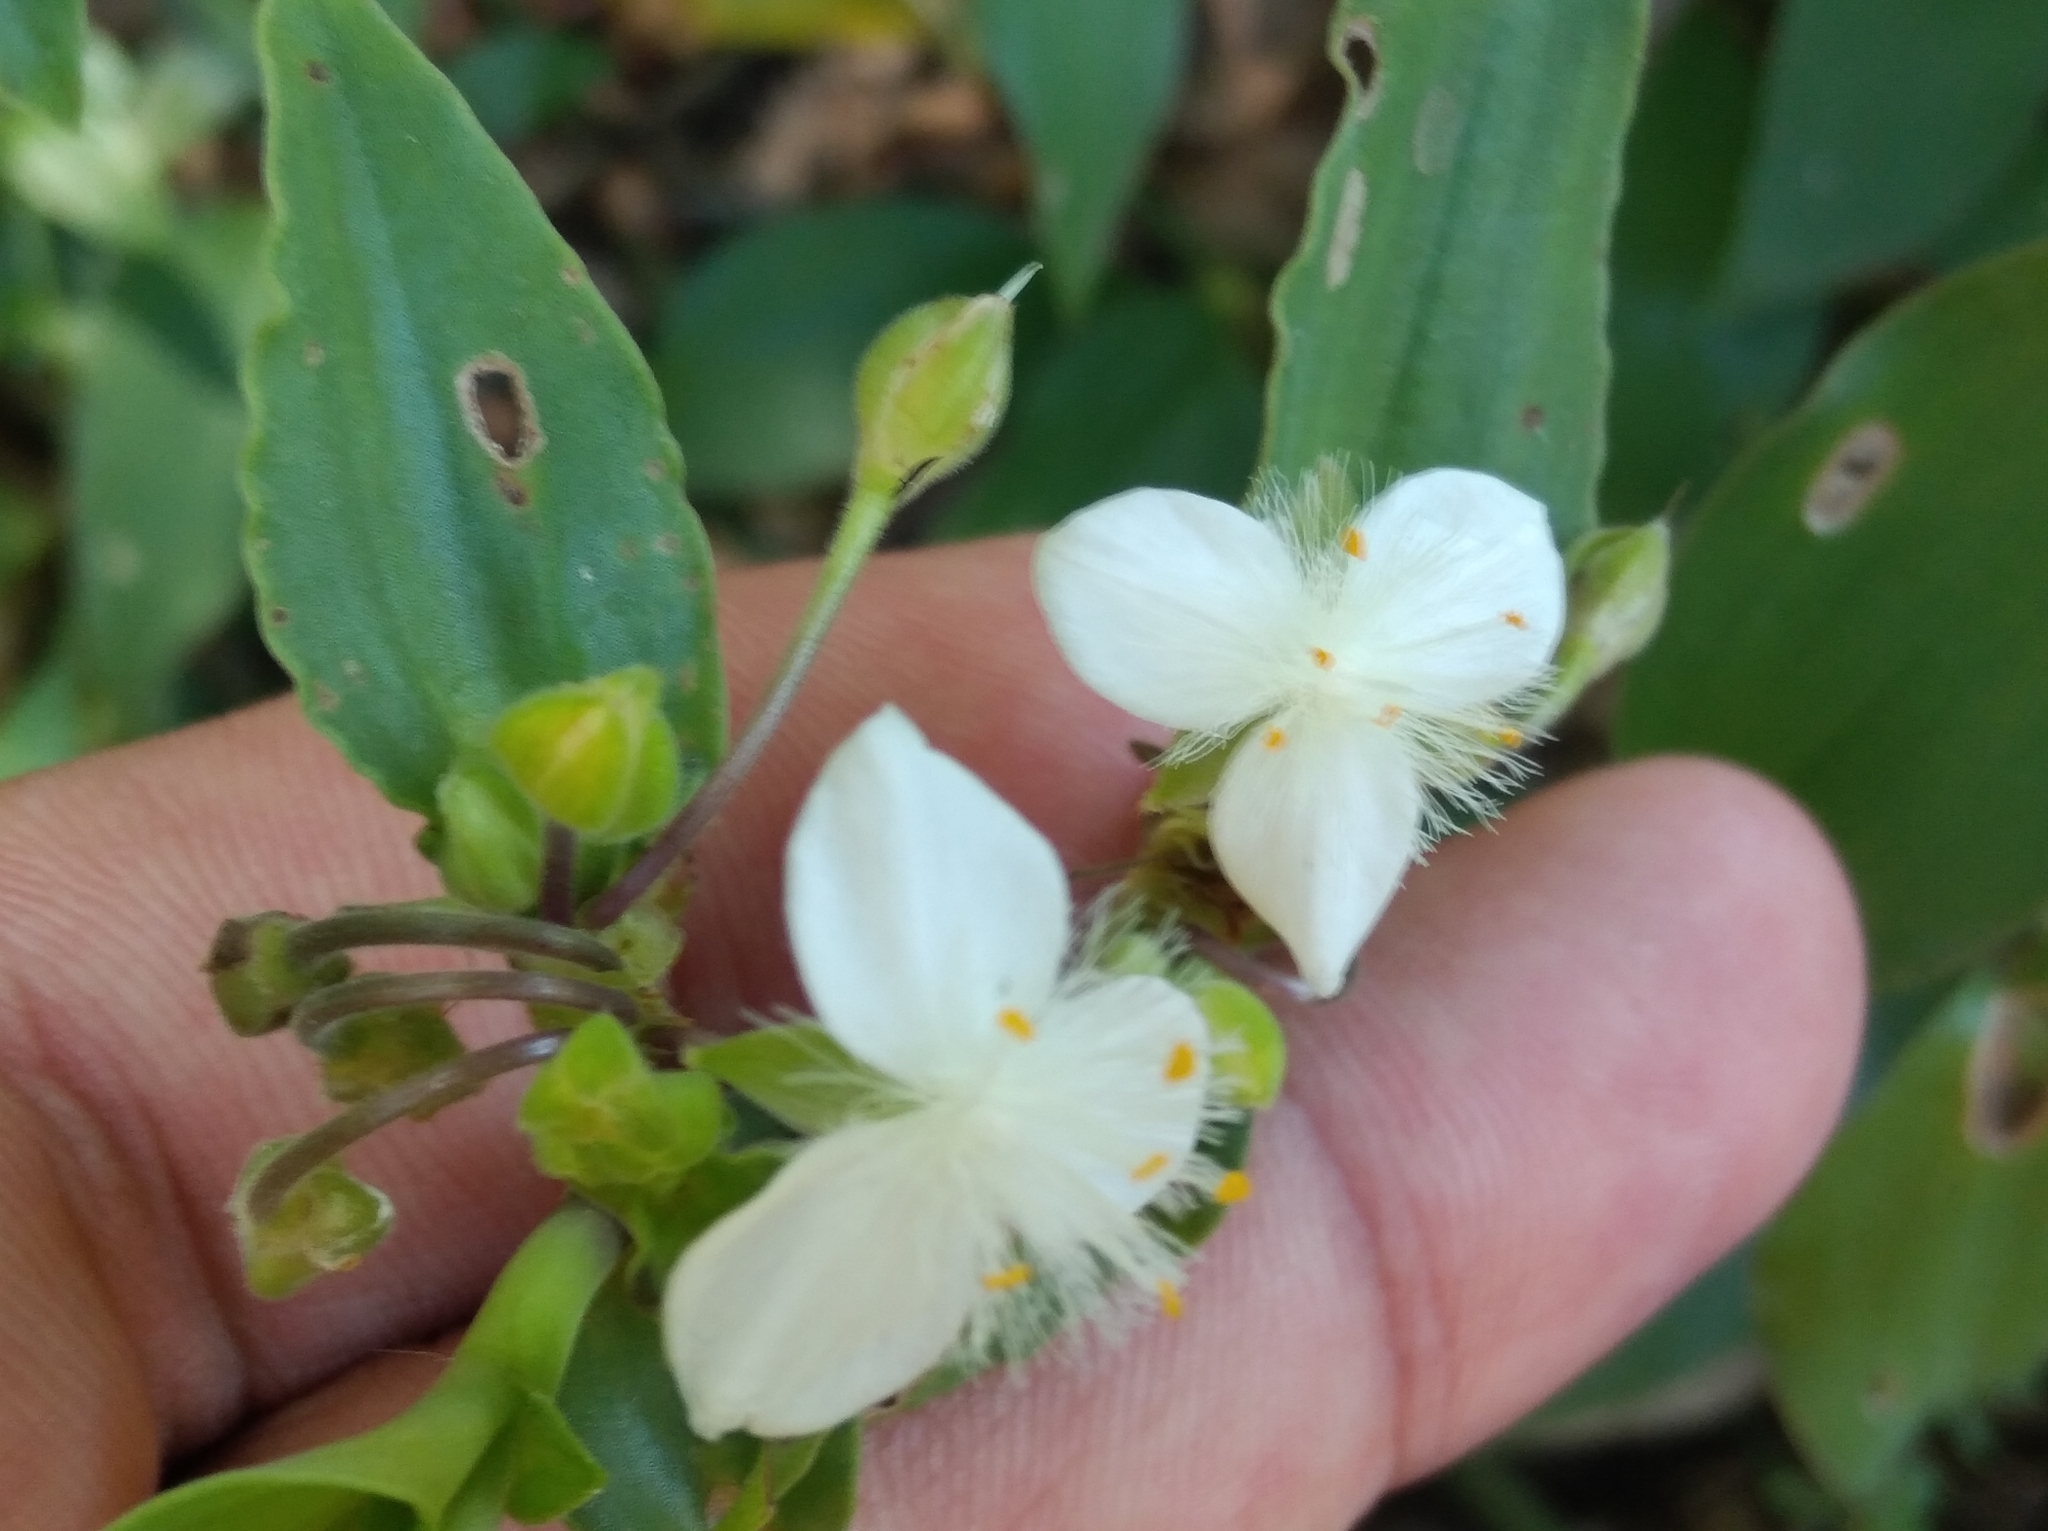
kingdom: Plantae
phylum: Tracheophyta
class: Liliopsida
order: Commelinales
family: Commelinaceae
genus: Tradescantia
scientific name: Tradescantia fluminensis
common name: Wandering-jew
